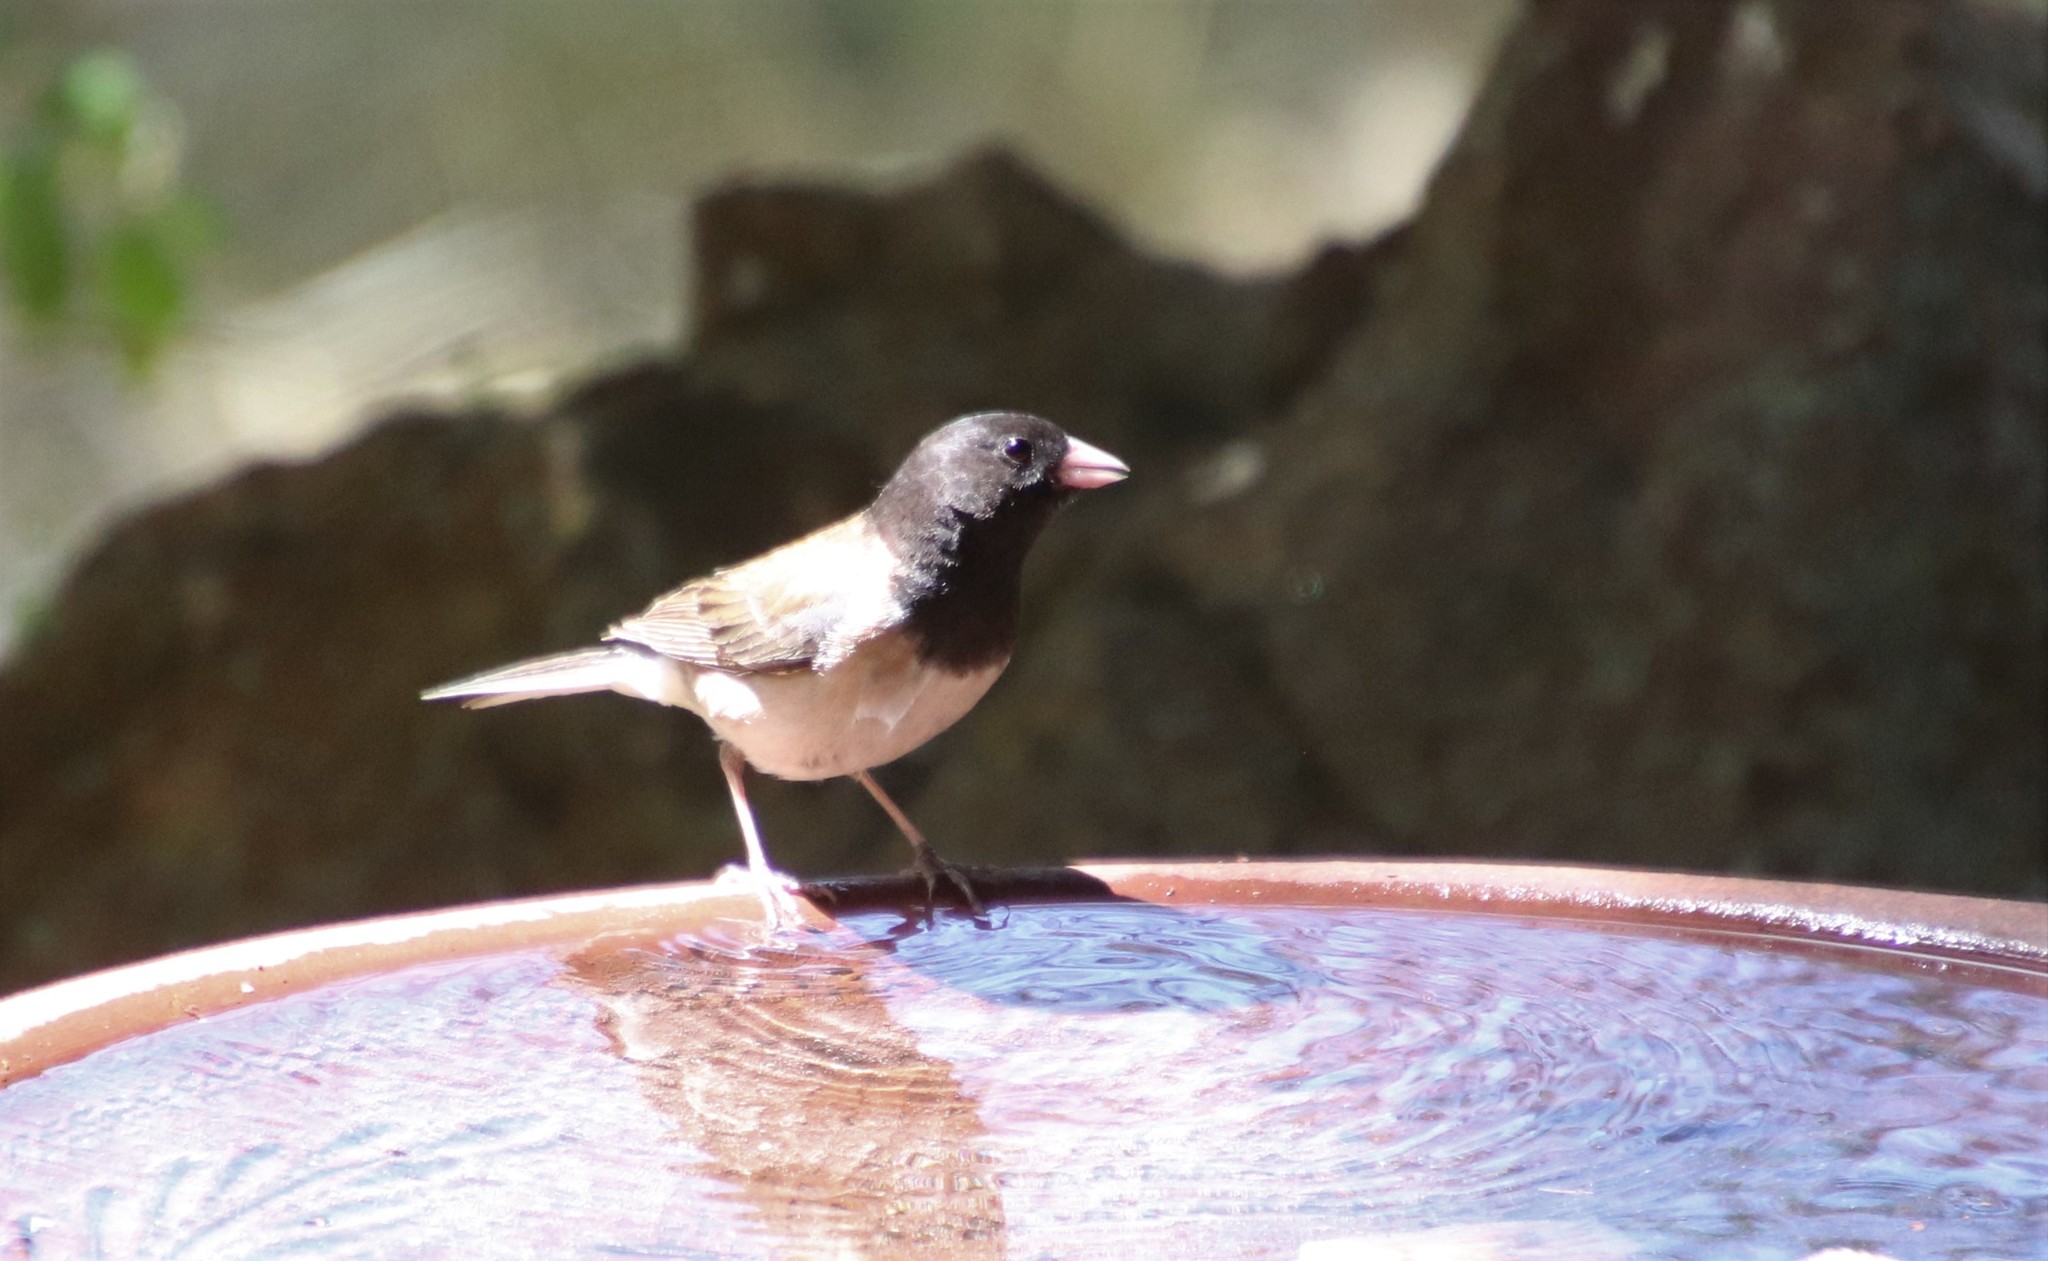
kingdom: Animalia
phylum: Chordata
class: Aves
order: Passeriformes
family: Passerellidae
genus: Junco
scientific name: Junco hyemalis
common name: Dark-eyed junco
